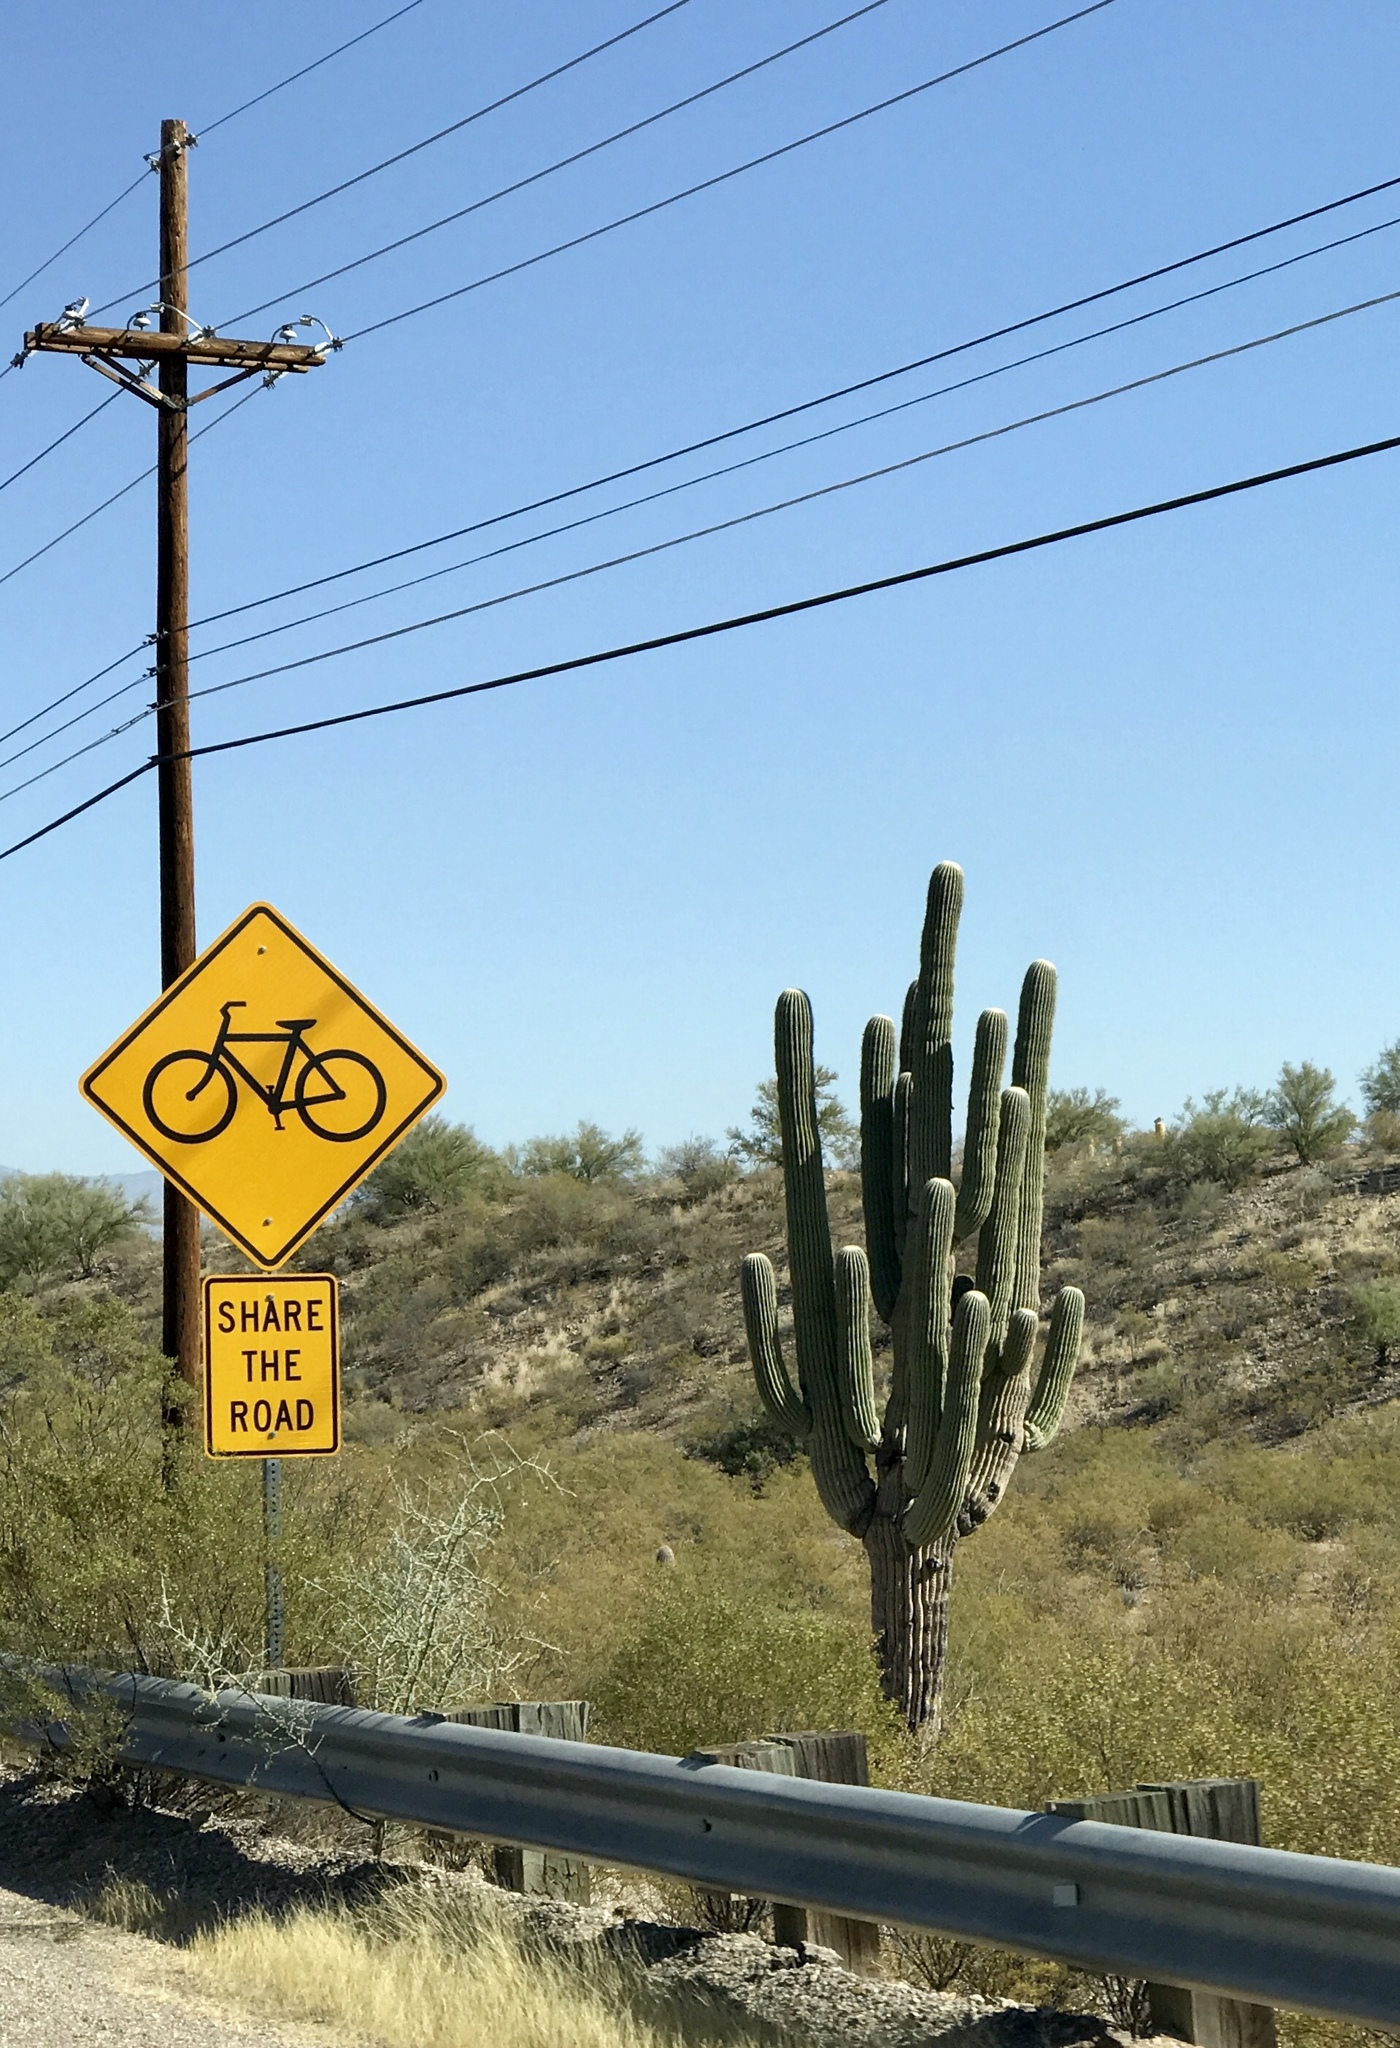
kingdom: Plantae
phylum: Tracheophyta
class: Magnoliopsida
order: Caryophyllales
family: Cactaceae
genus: Carnegiea
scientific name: Carnegiea gigantea
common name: Saguaro
